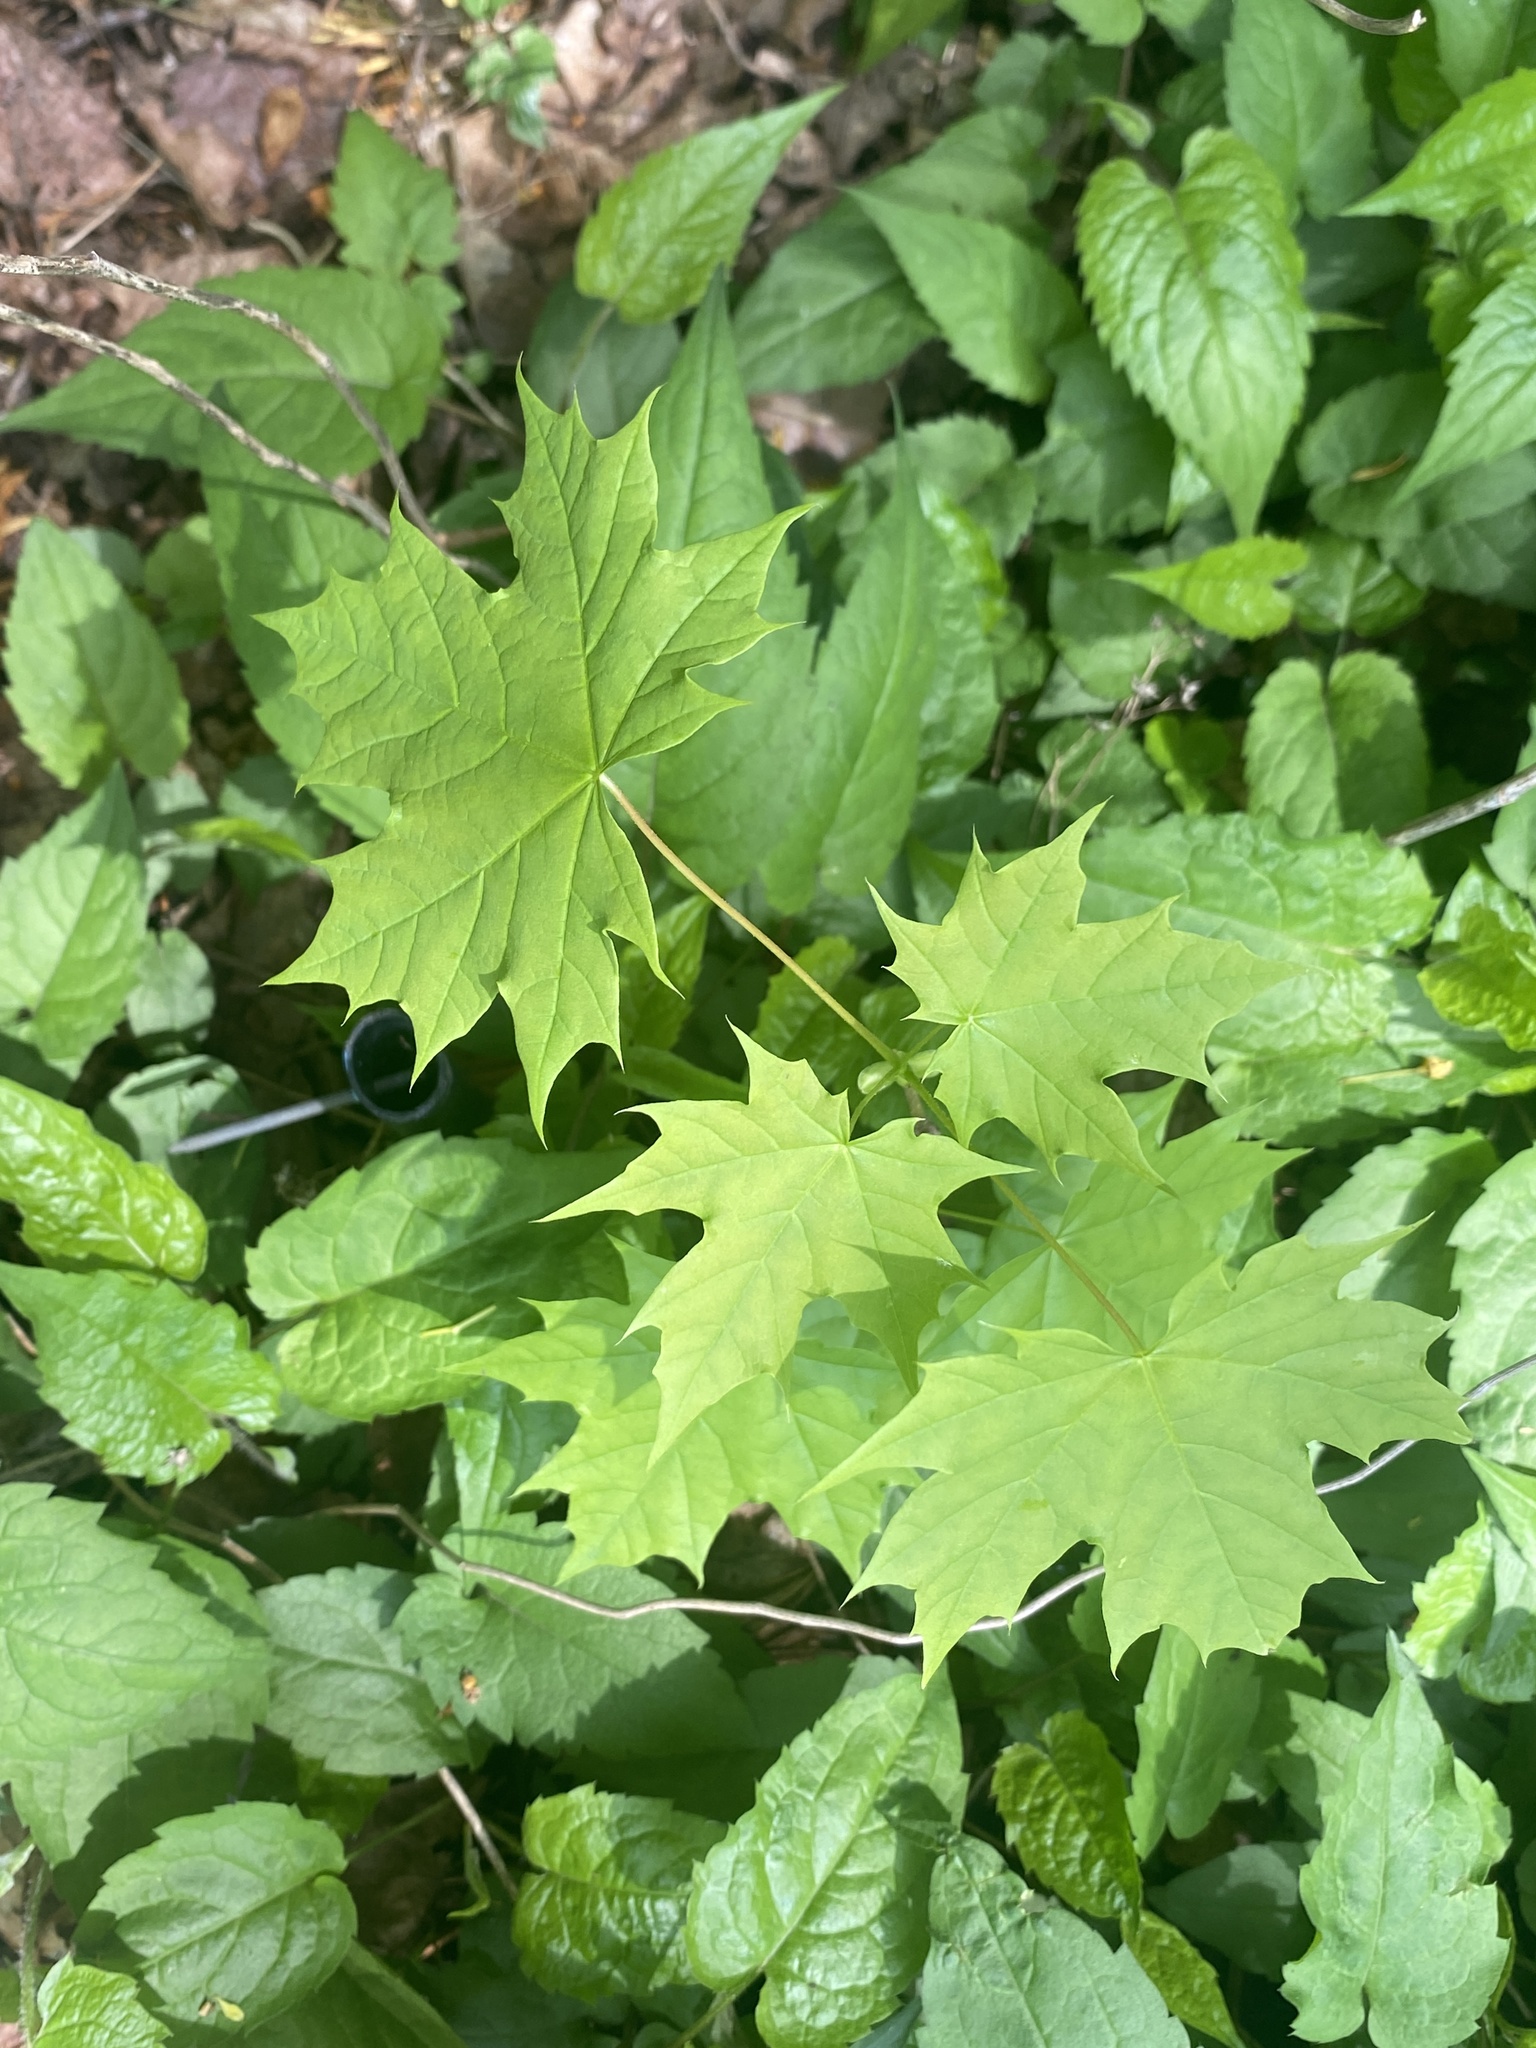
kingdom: Plantae
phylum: Tracheophyta
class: Magnoliopsida
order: Sapindales
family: Sapindaceae
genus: Acer
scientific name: Acer platanoides
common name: Norway maple
